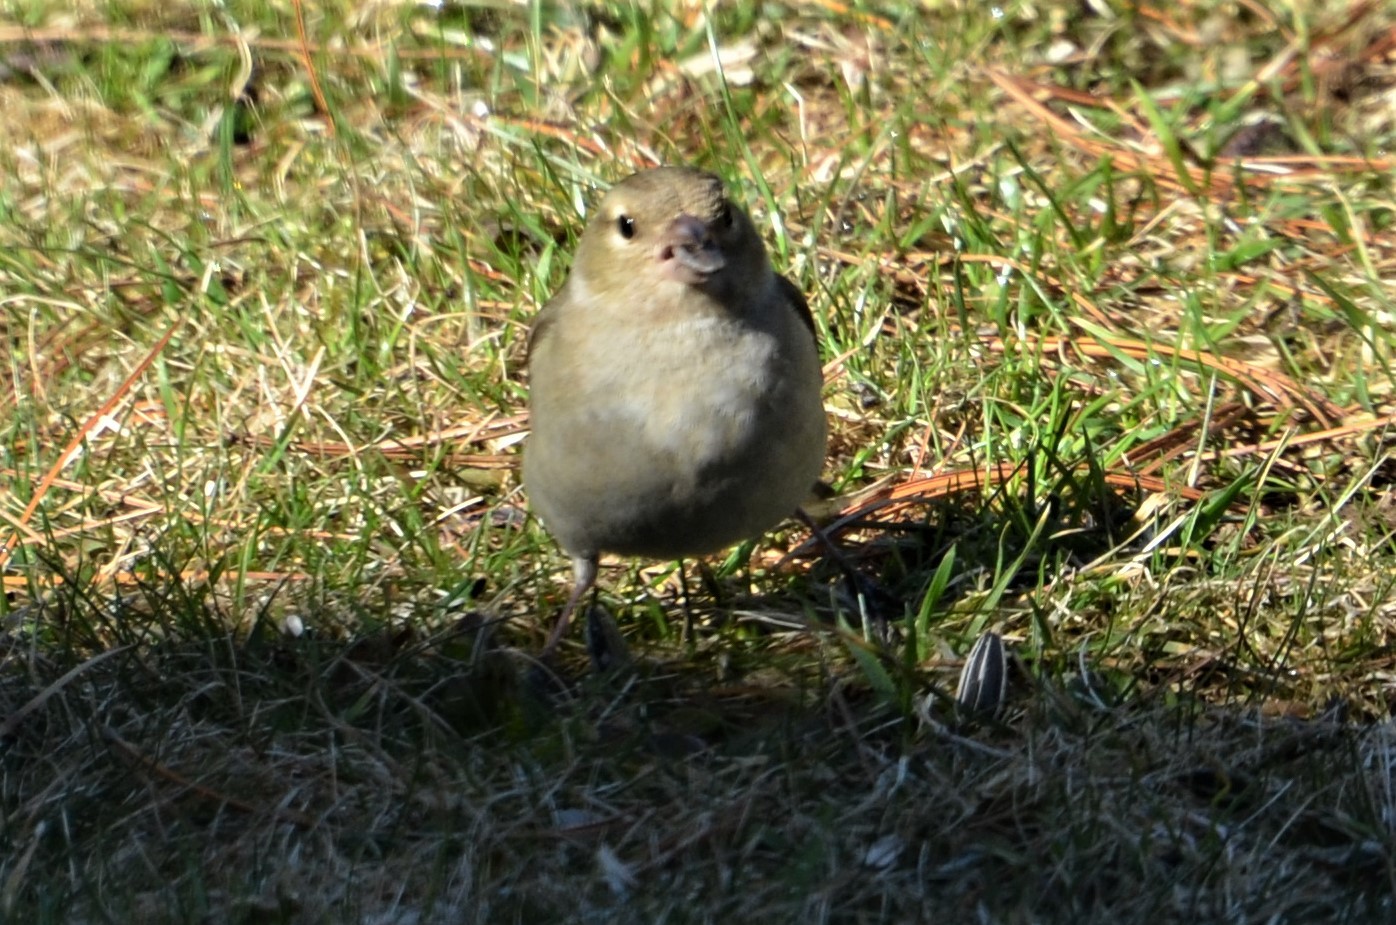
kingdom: Animalia
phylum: Chordata
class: Aves
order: Passeriformes
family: Fringillidae
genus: Fringilla
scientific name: Fringilla coelebs
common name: Common chaffinch
